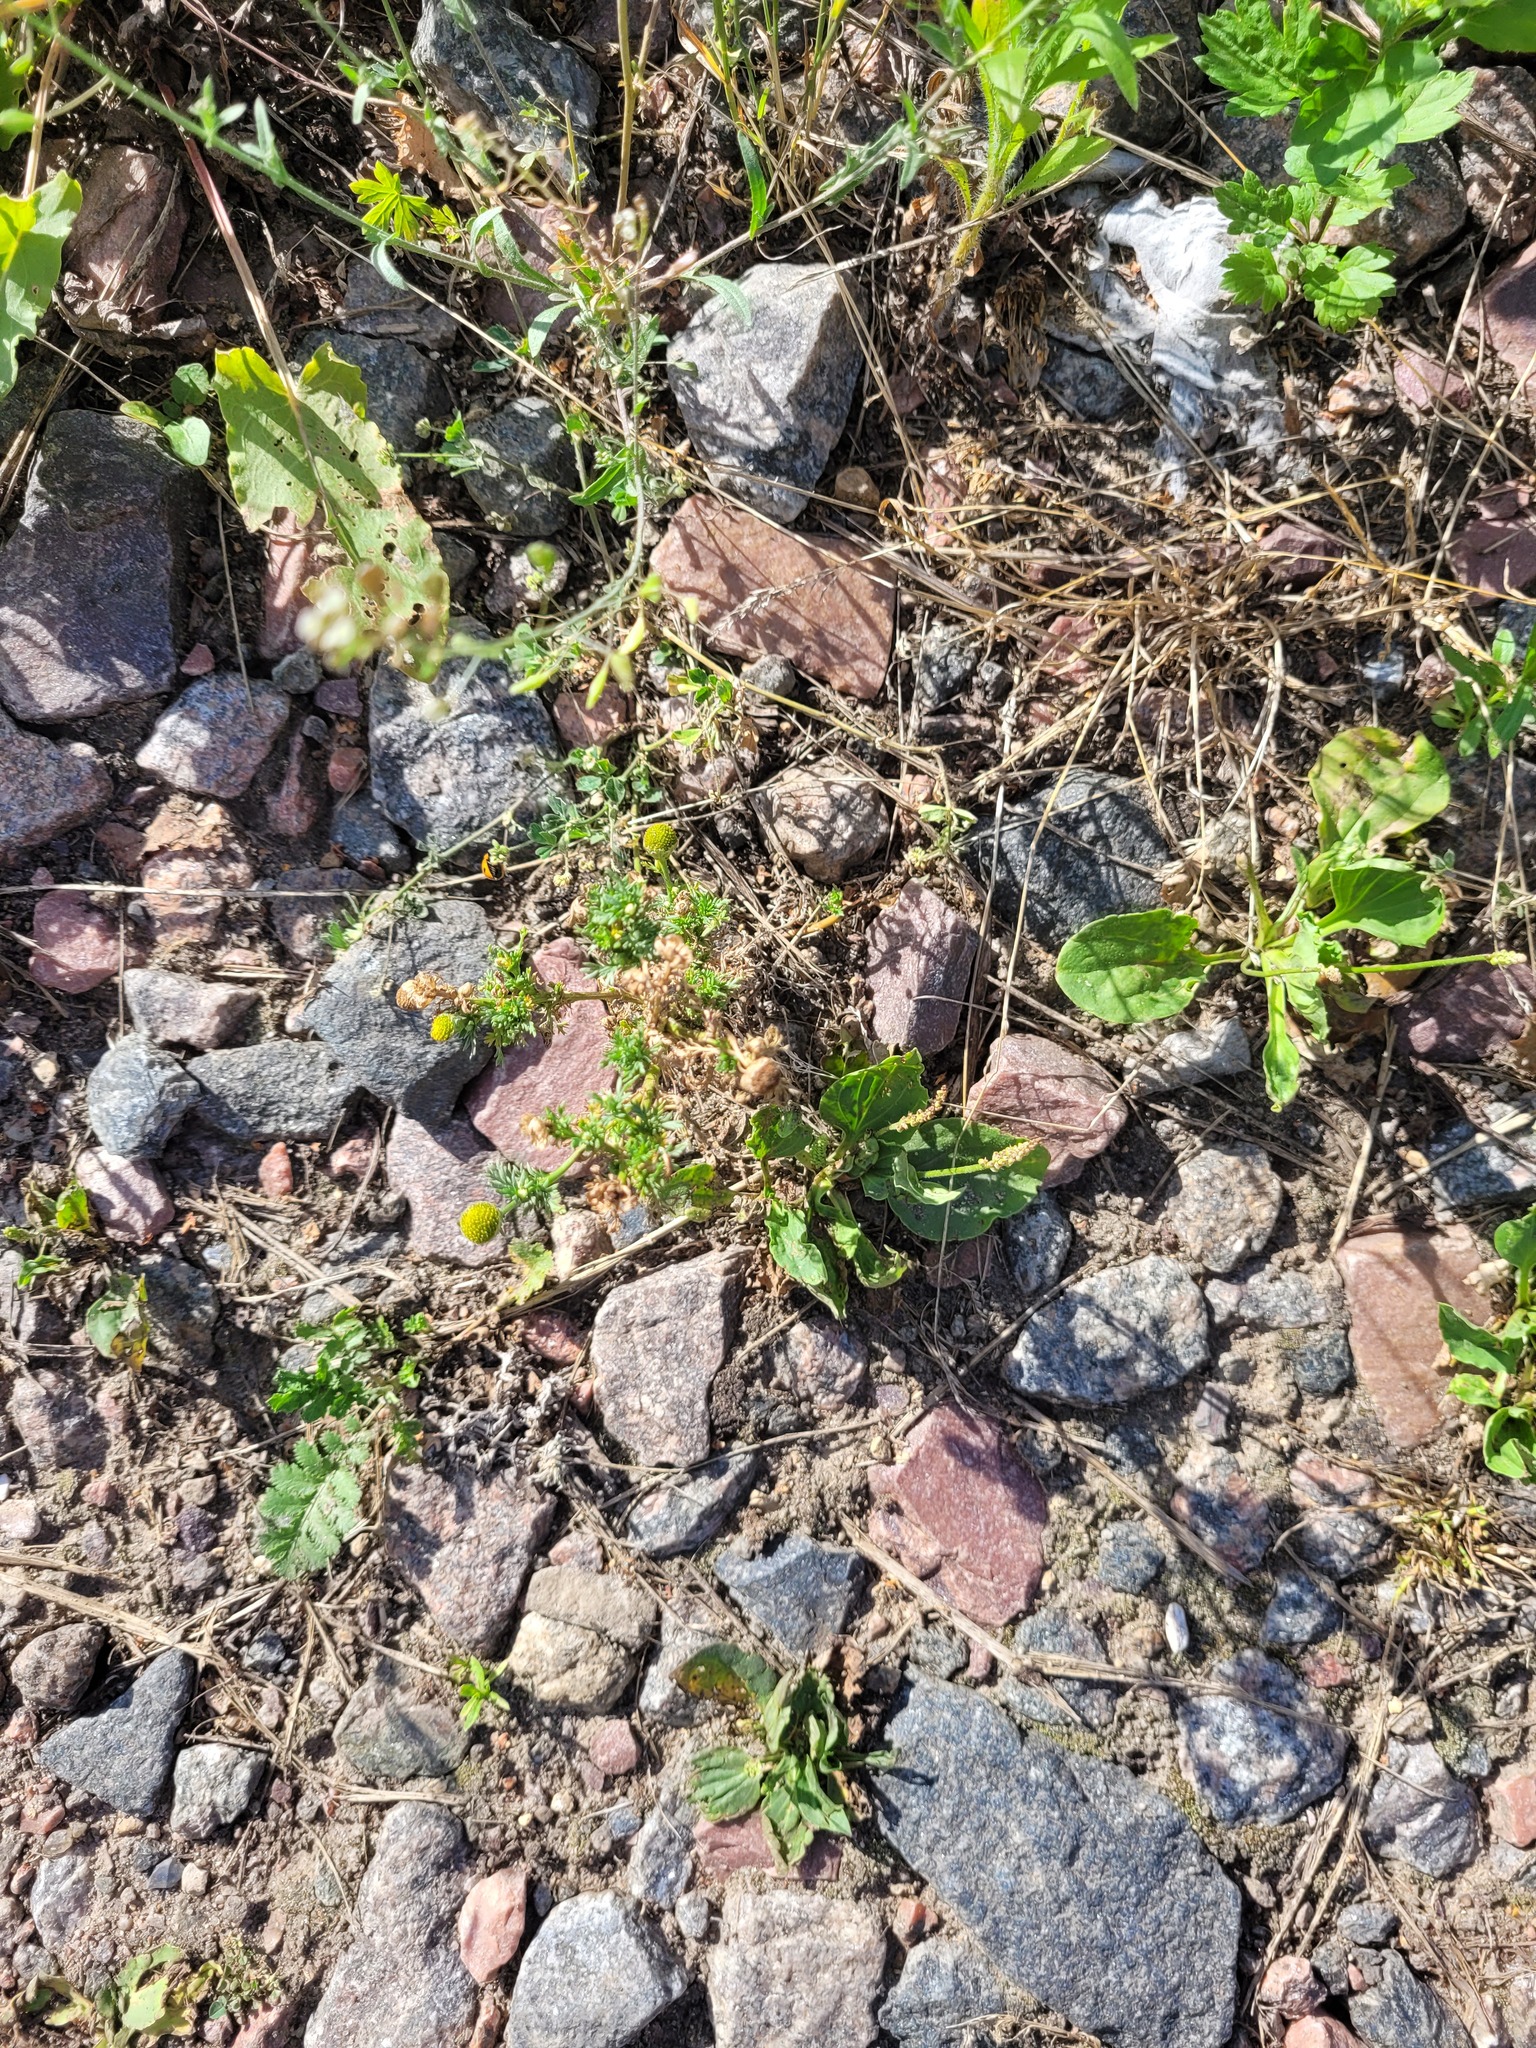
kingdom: Plantae
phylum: Tracheophyta
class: Magnoliopsida
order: Asterales
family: Asteraceae
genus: Matricaria
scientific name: Matricaria discoidea
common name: Disc mayweed
